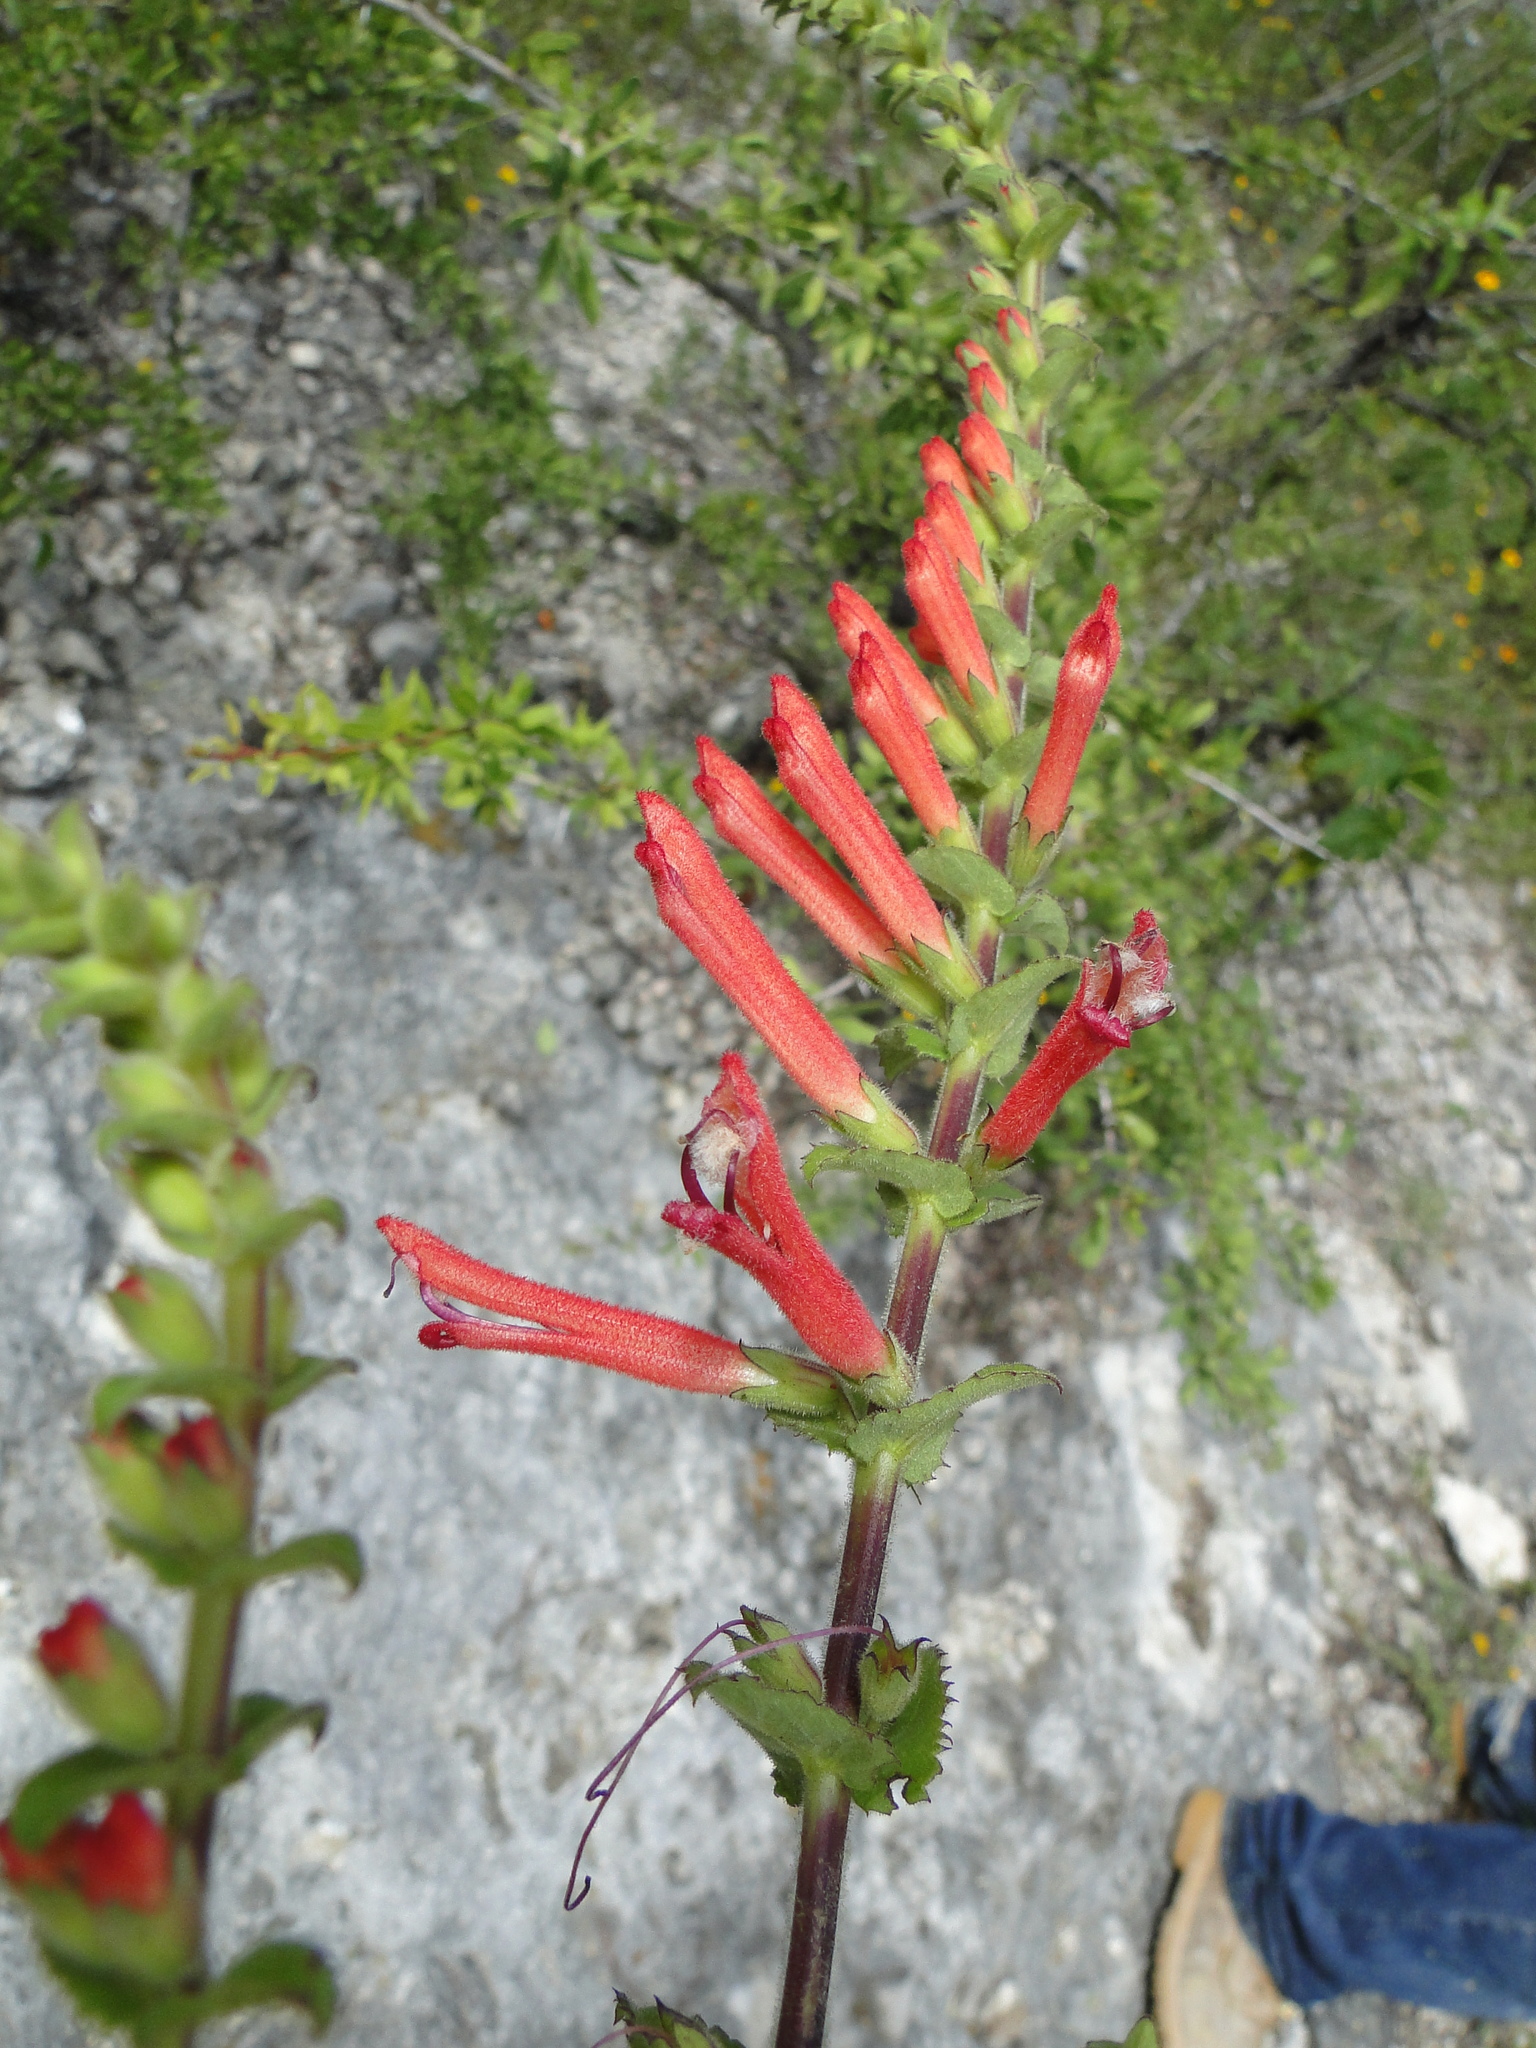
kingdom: Plantae
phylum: Tracheophyta
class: Magnoliopsida
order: Lamiales
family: Orobanchaceae
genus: Lamourouxia
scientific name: Lamourouxia viscosa
